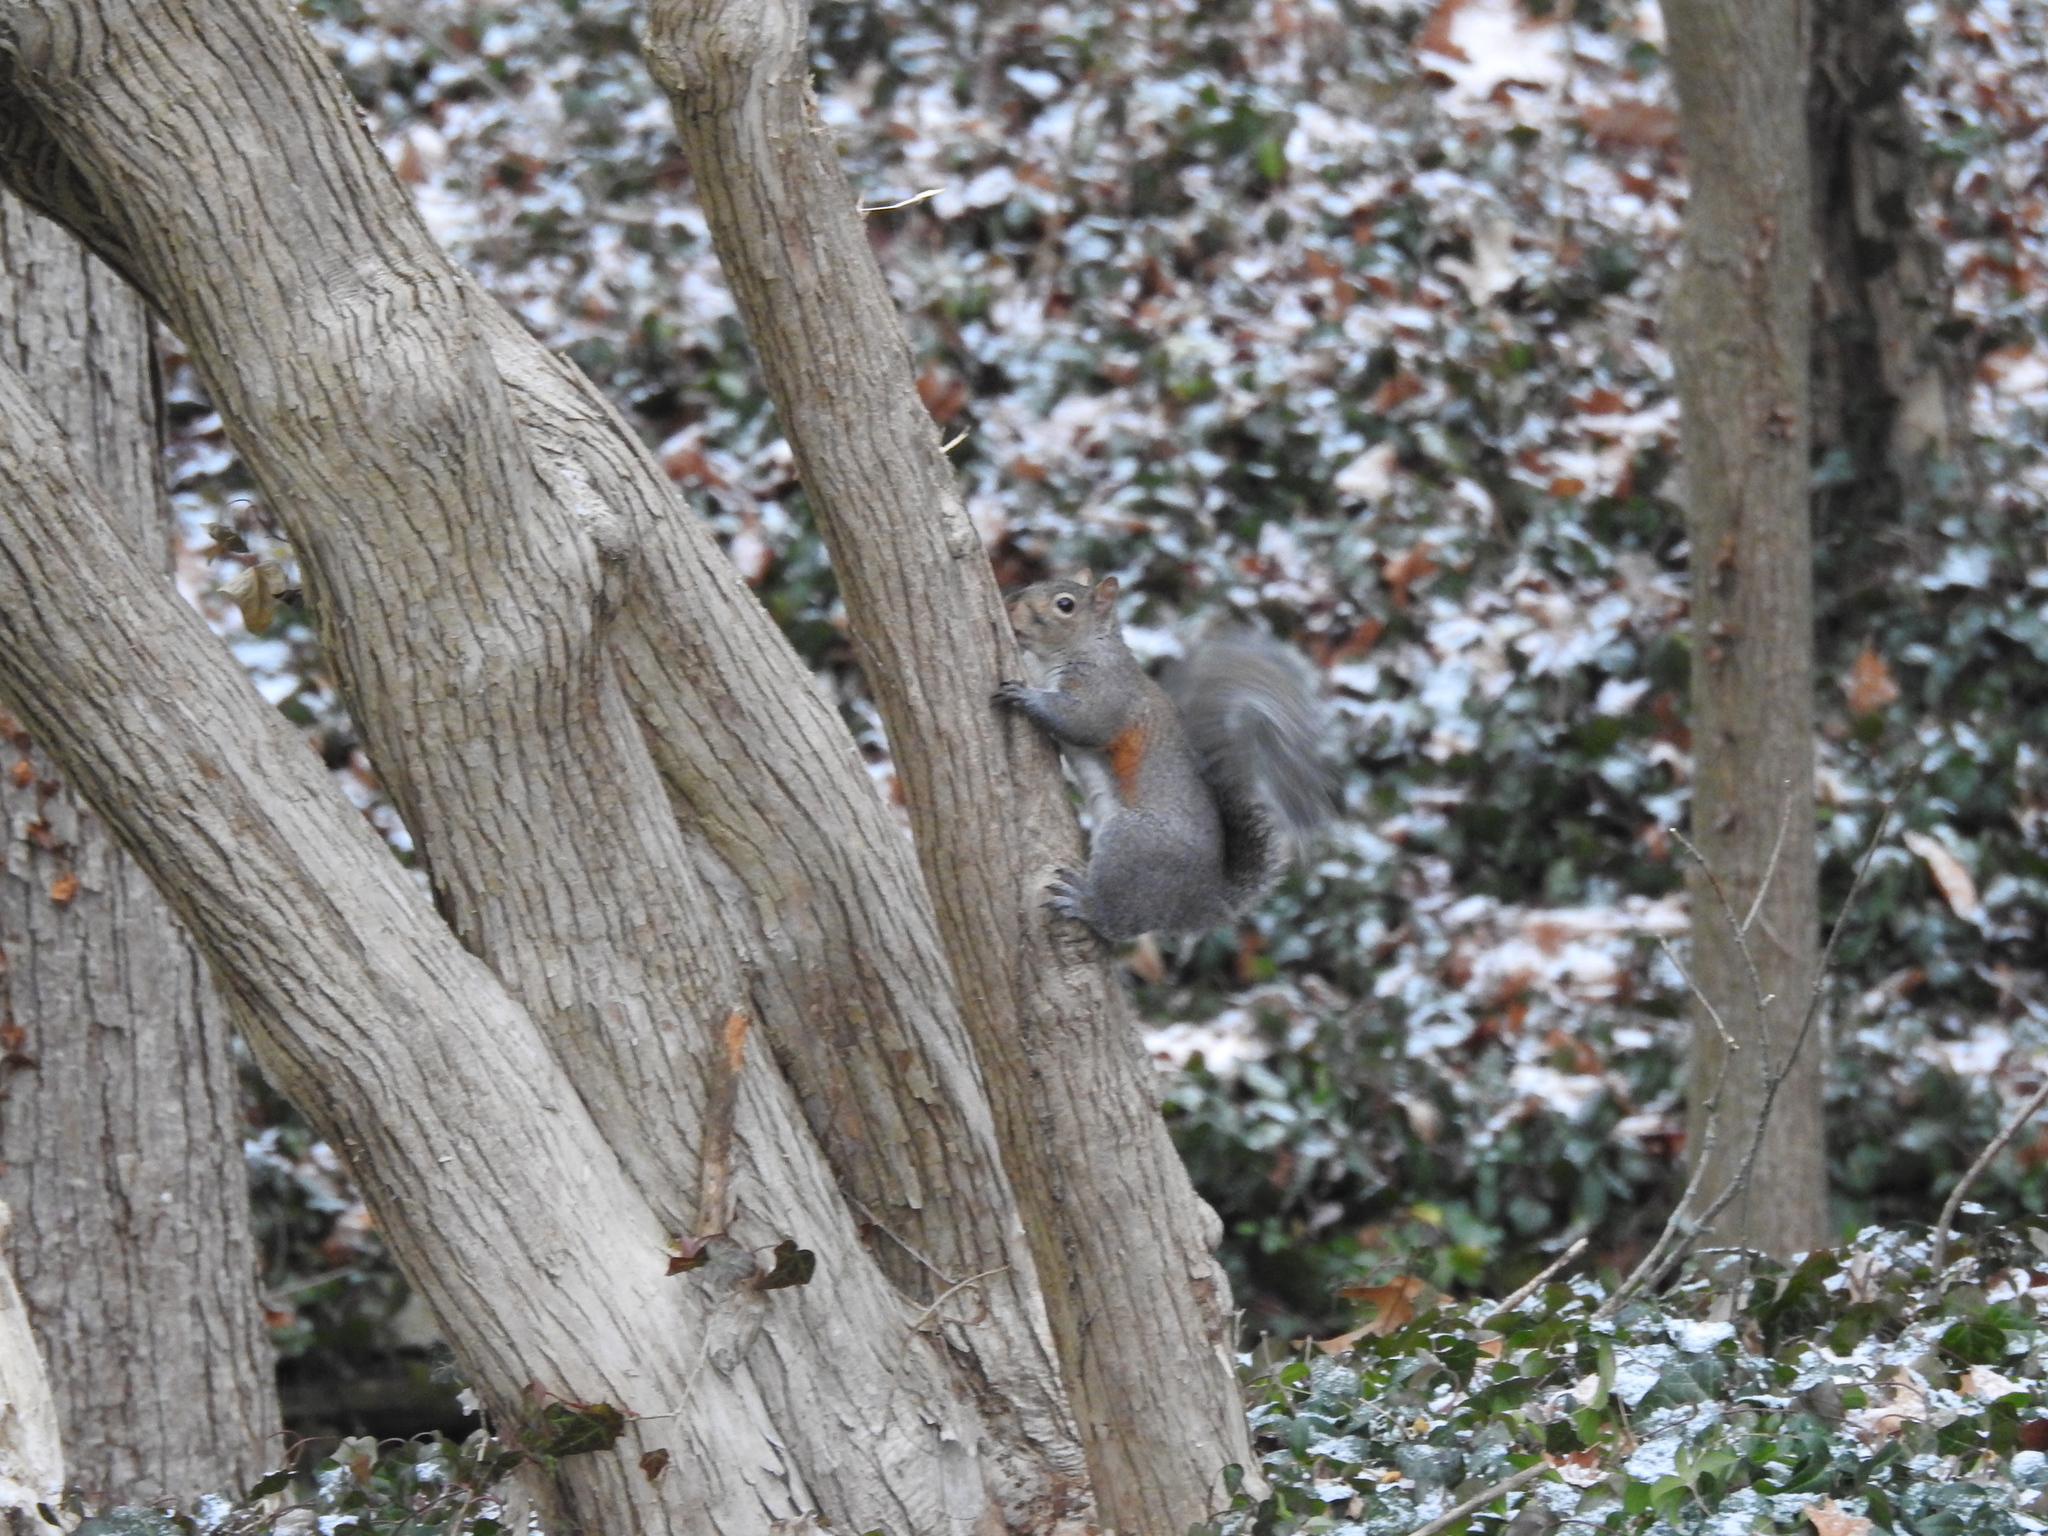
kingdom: Animalia
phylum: Chordata
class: Mammalia
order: Rodentia
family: Sciuridae
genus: Sciurus
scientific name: Sciurus carolinensis
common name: Eastern gray squirrel
